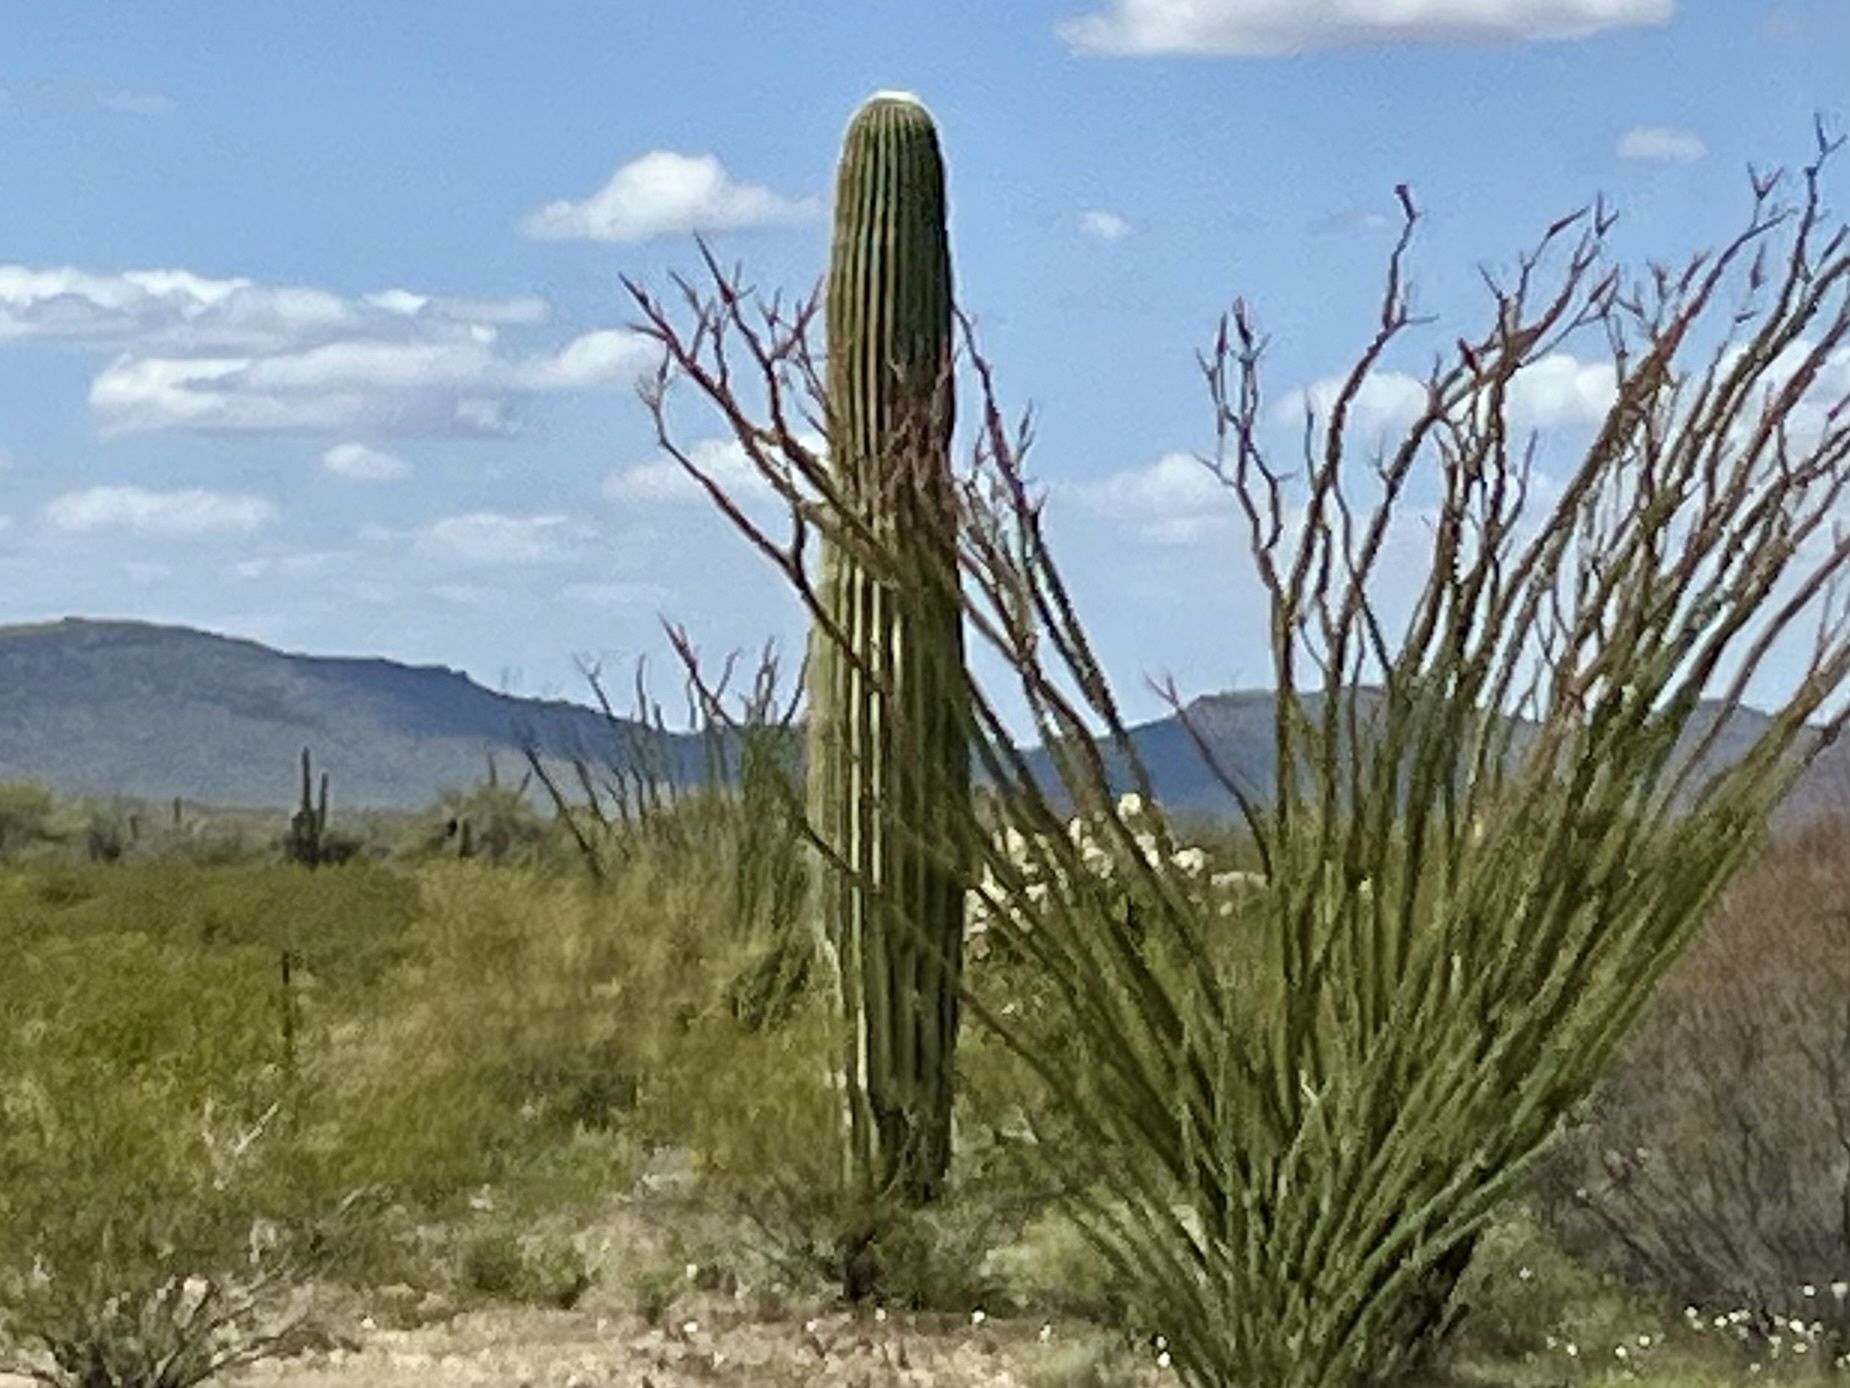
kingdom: Plantae
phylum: Tracheophyta
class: Magnoliopsida
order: Caryophyllales
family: Cactaceae
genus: Carnegiea
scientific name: Carnegiea gigantea
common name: Saguaro
